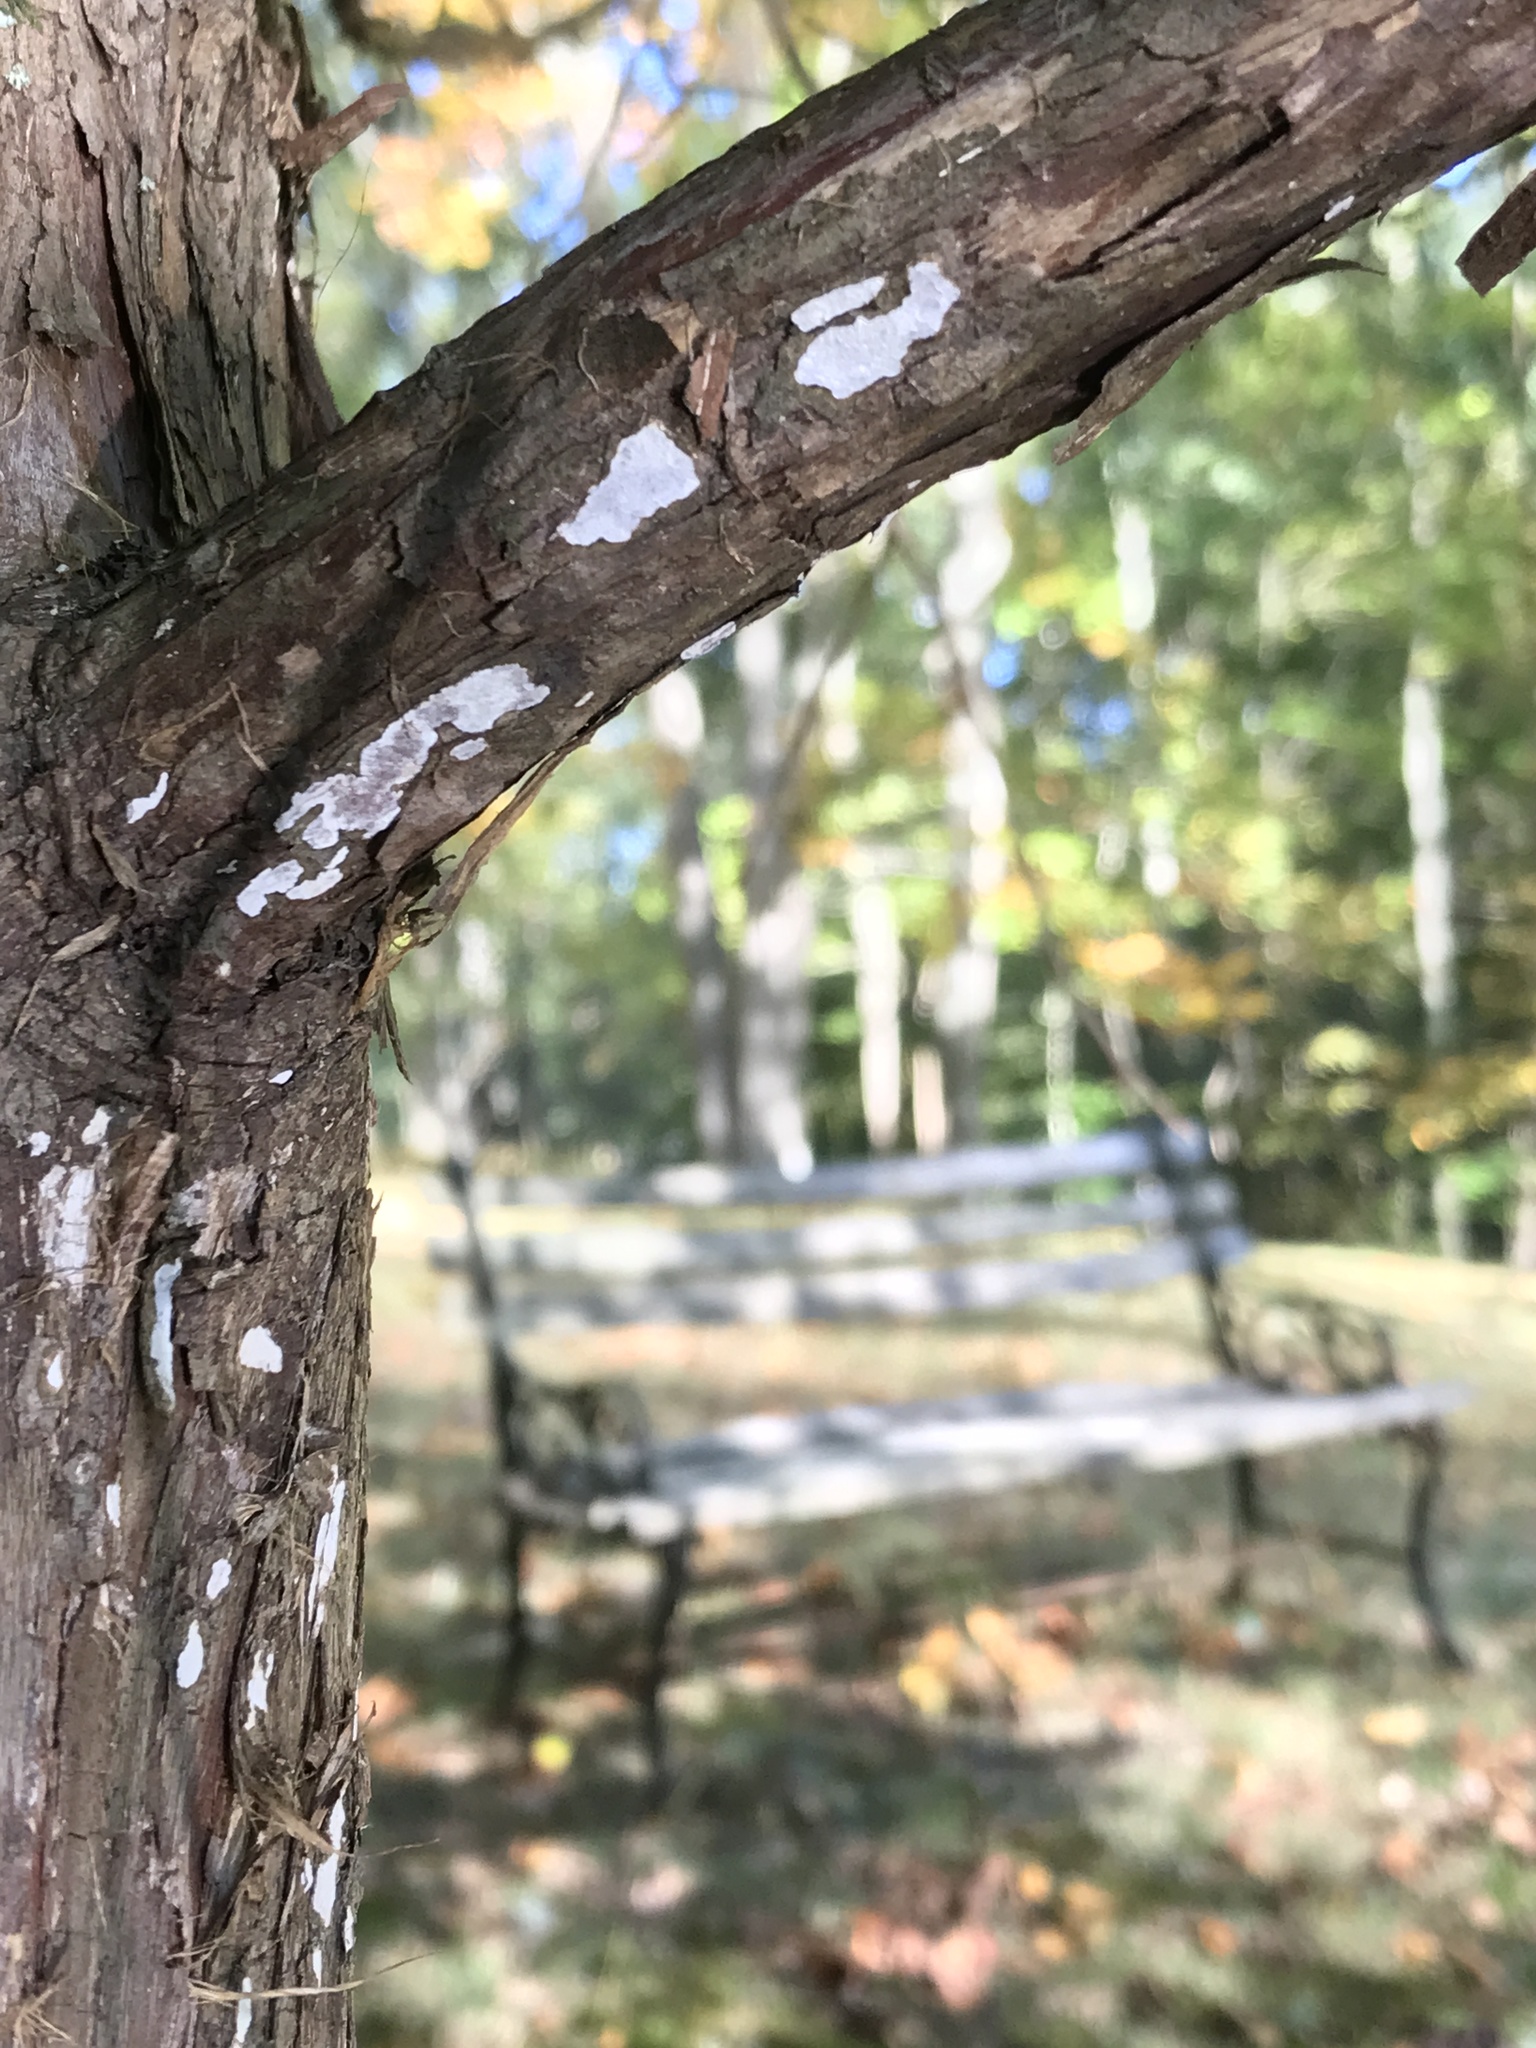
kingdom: Fungi
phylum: Basidiomycota
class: Agaricomycetes
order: Agaricales
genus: Dendrothele
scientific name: Dendrothele nivosa
